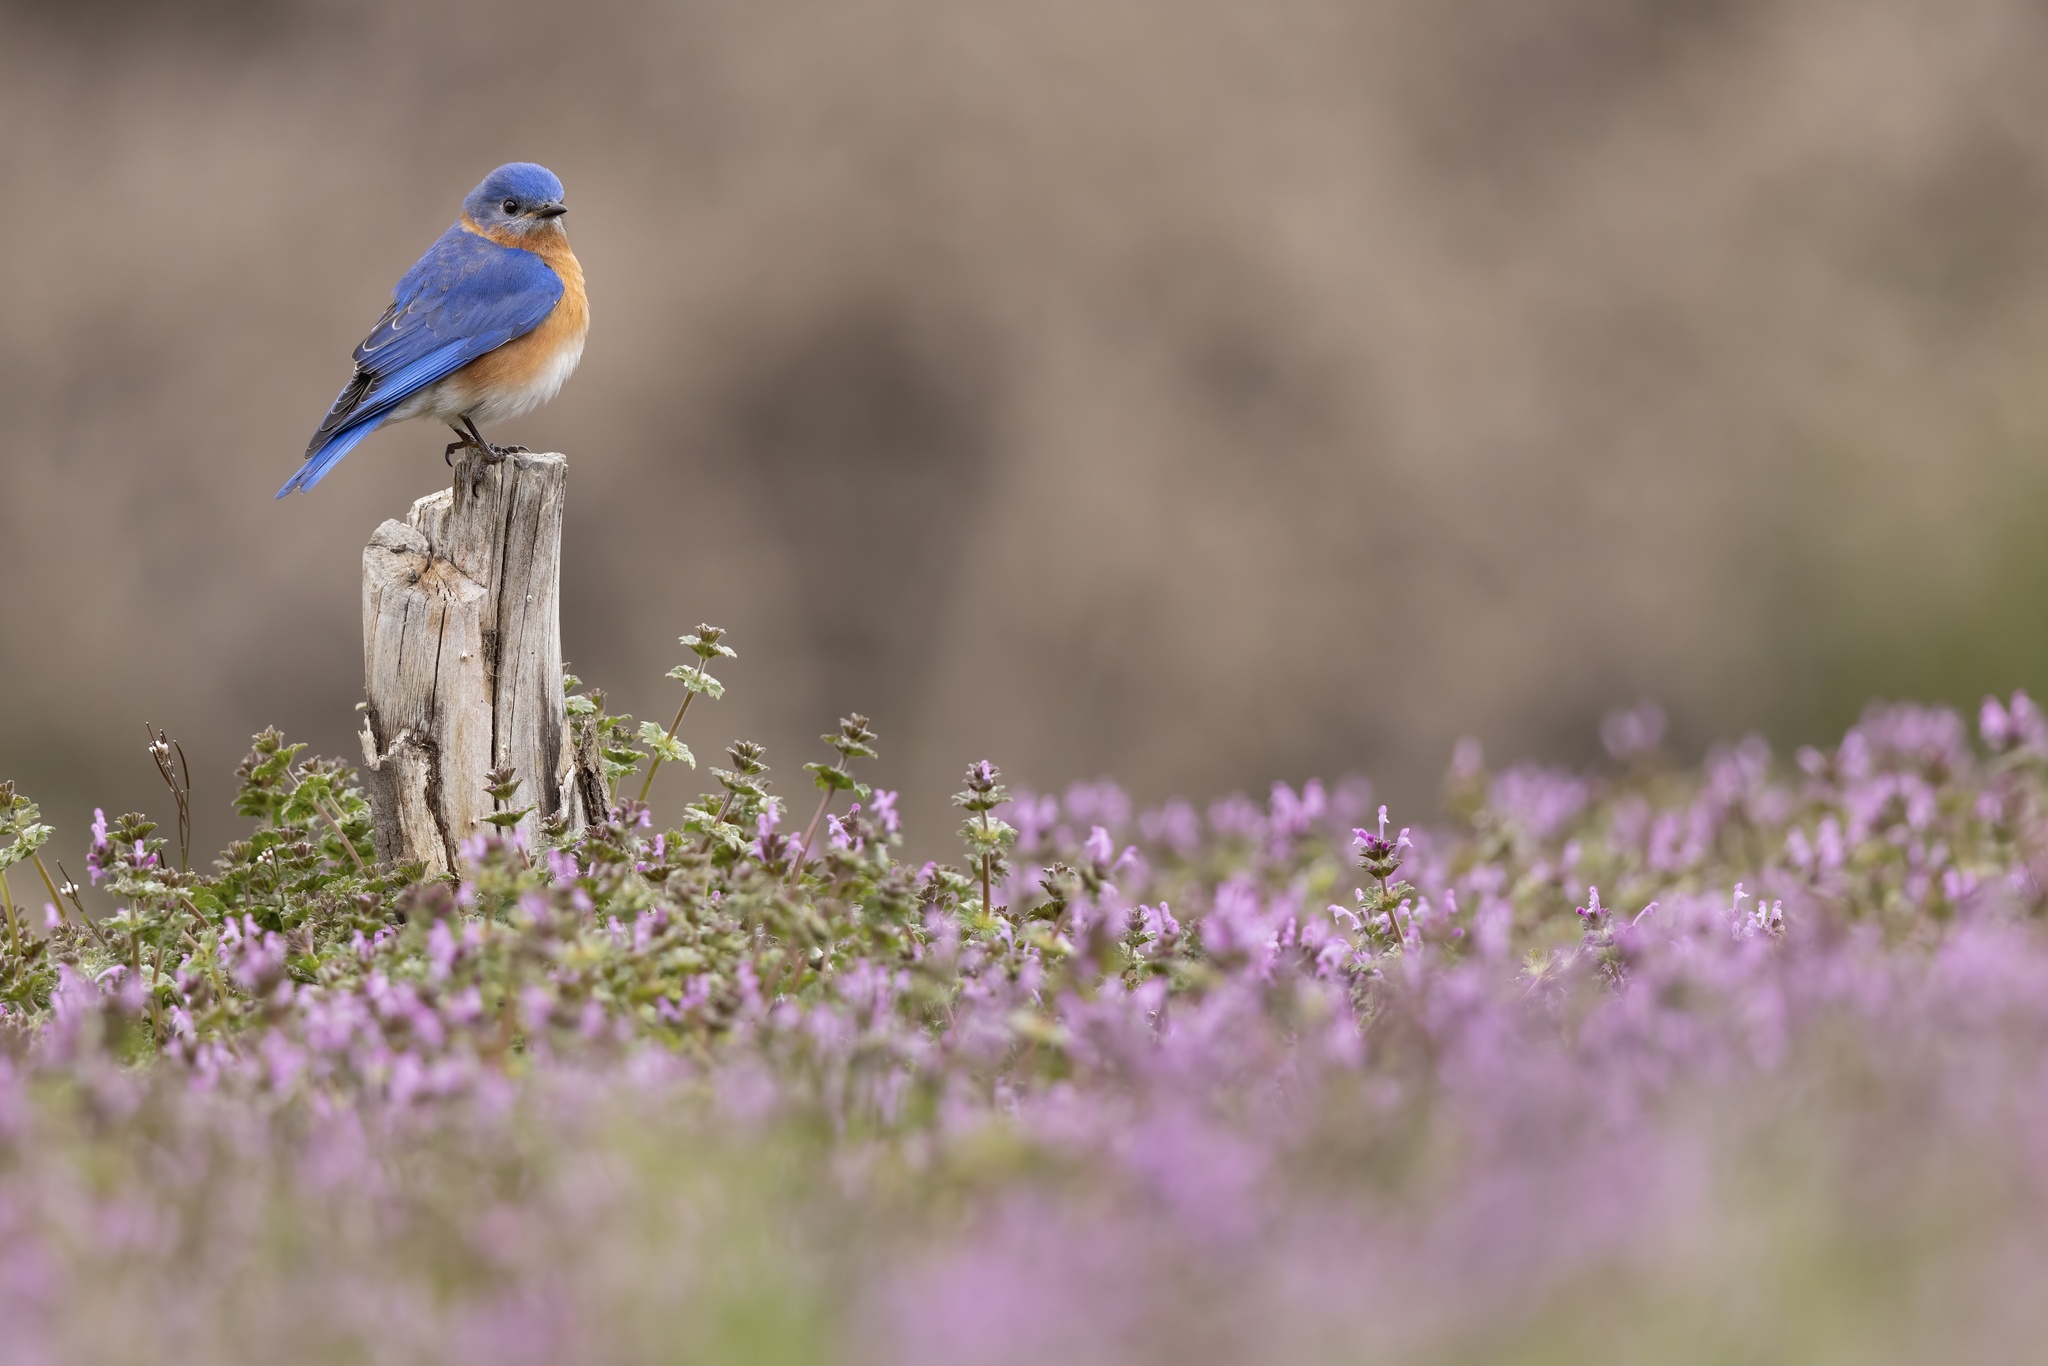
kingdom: Animalia
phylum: Chordata
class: Aves
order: Passeriformes
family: Turdidae
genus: Sialia
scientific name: Sialia sialis
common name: Eastern bluebird
